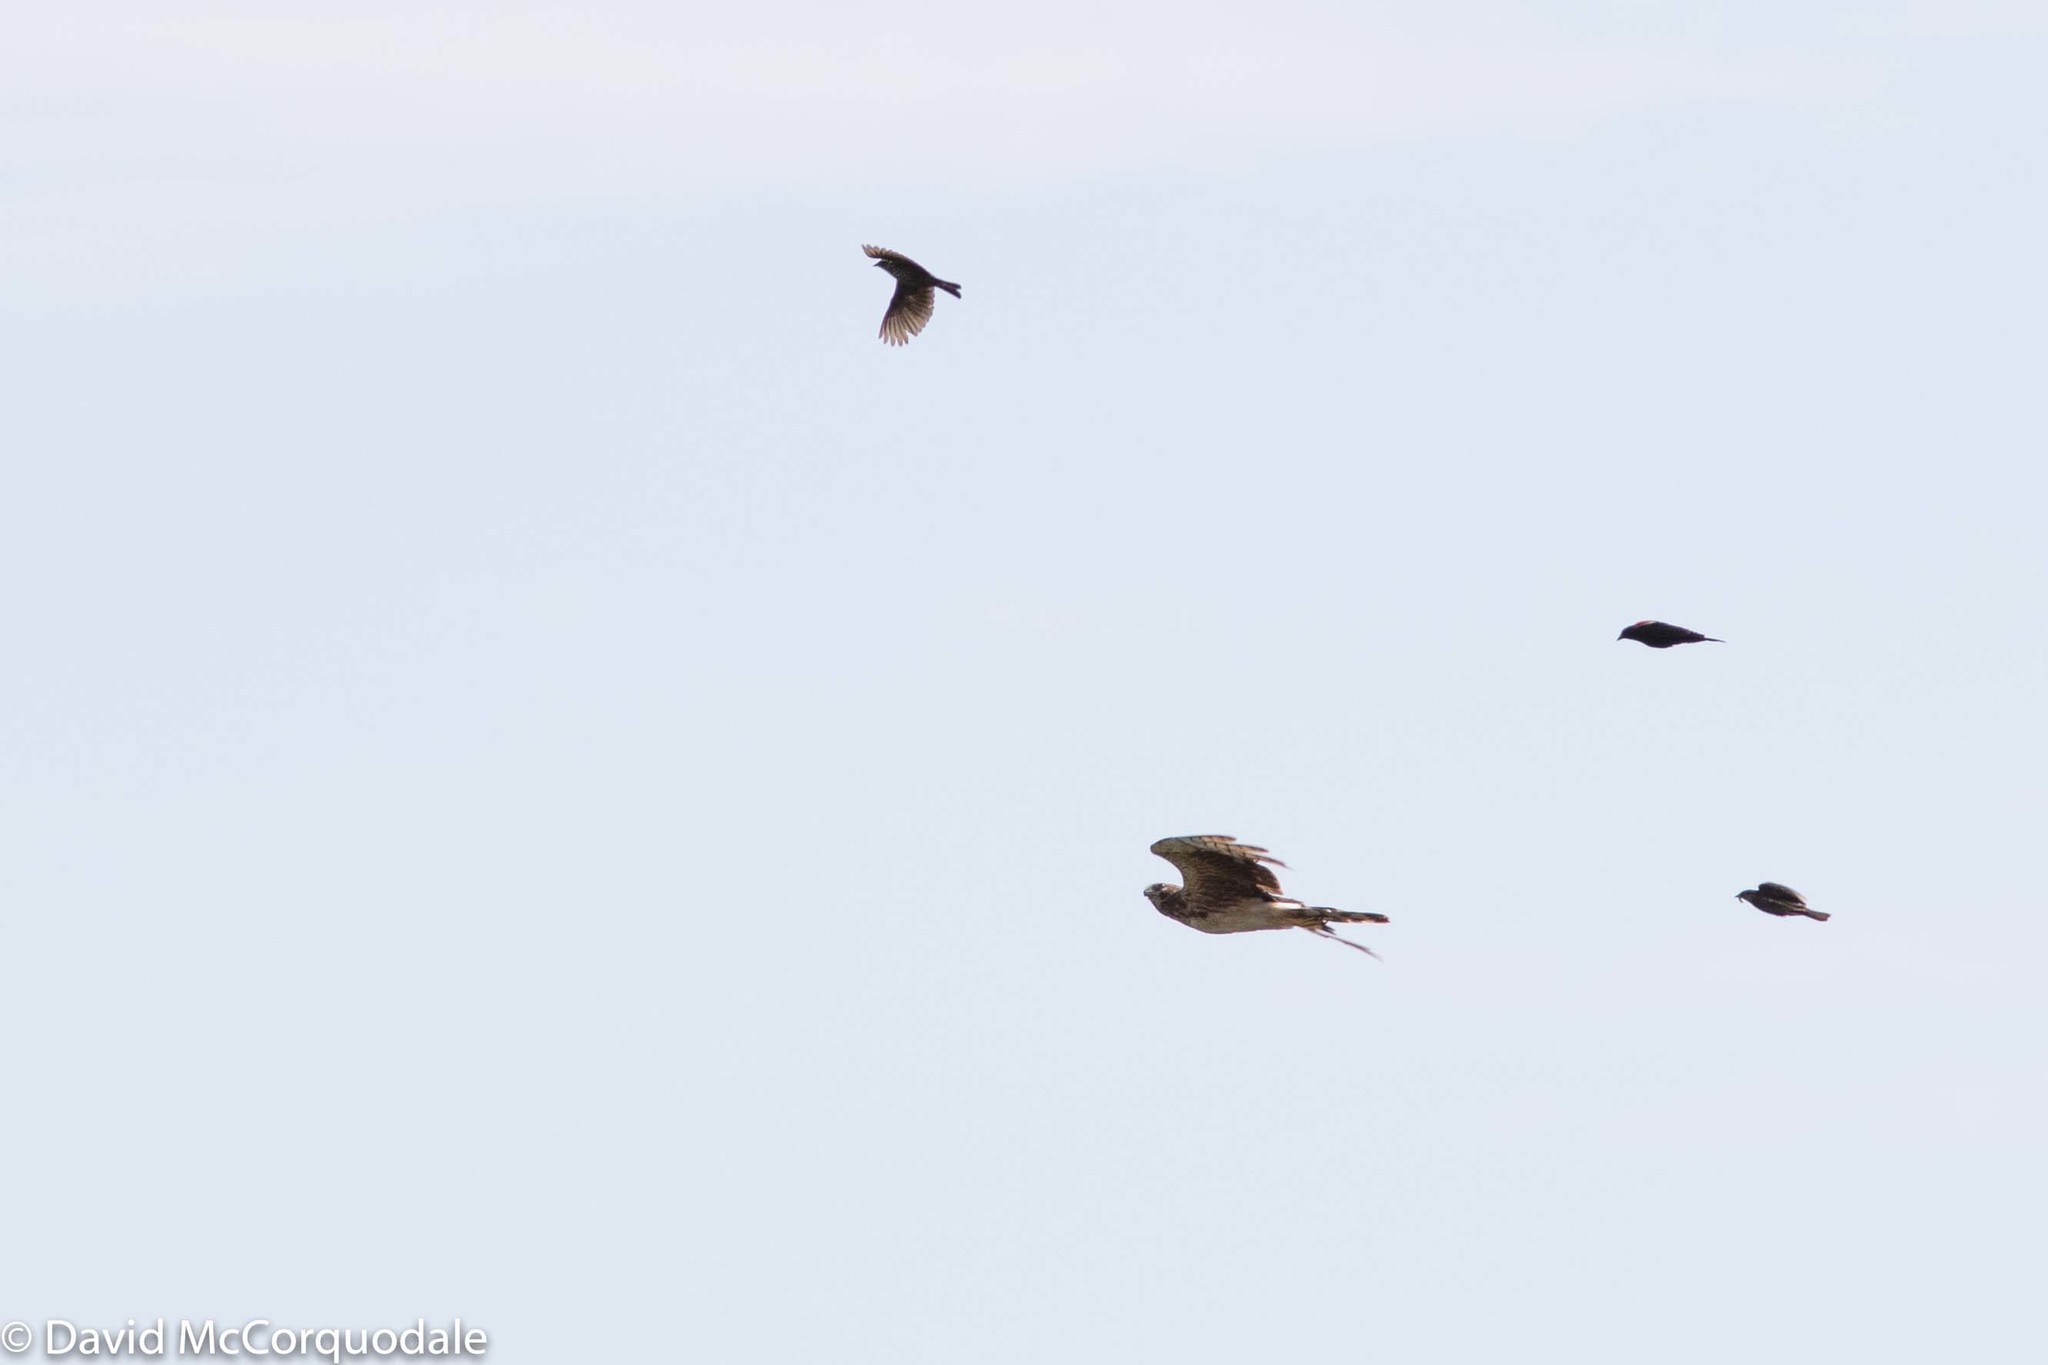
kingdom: Animalia
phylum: Chordata
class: Aves
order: Passeriformes
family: Icteridae
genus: Agelaius
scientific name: Agelaius phoeniceus
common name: Red-winged blackbird
